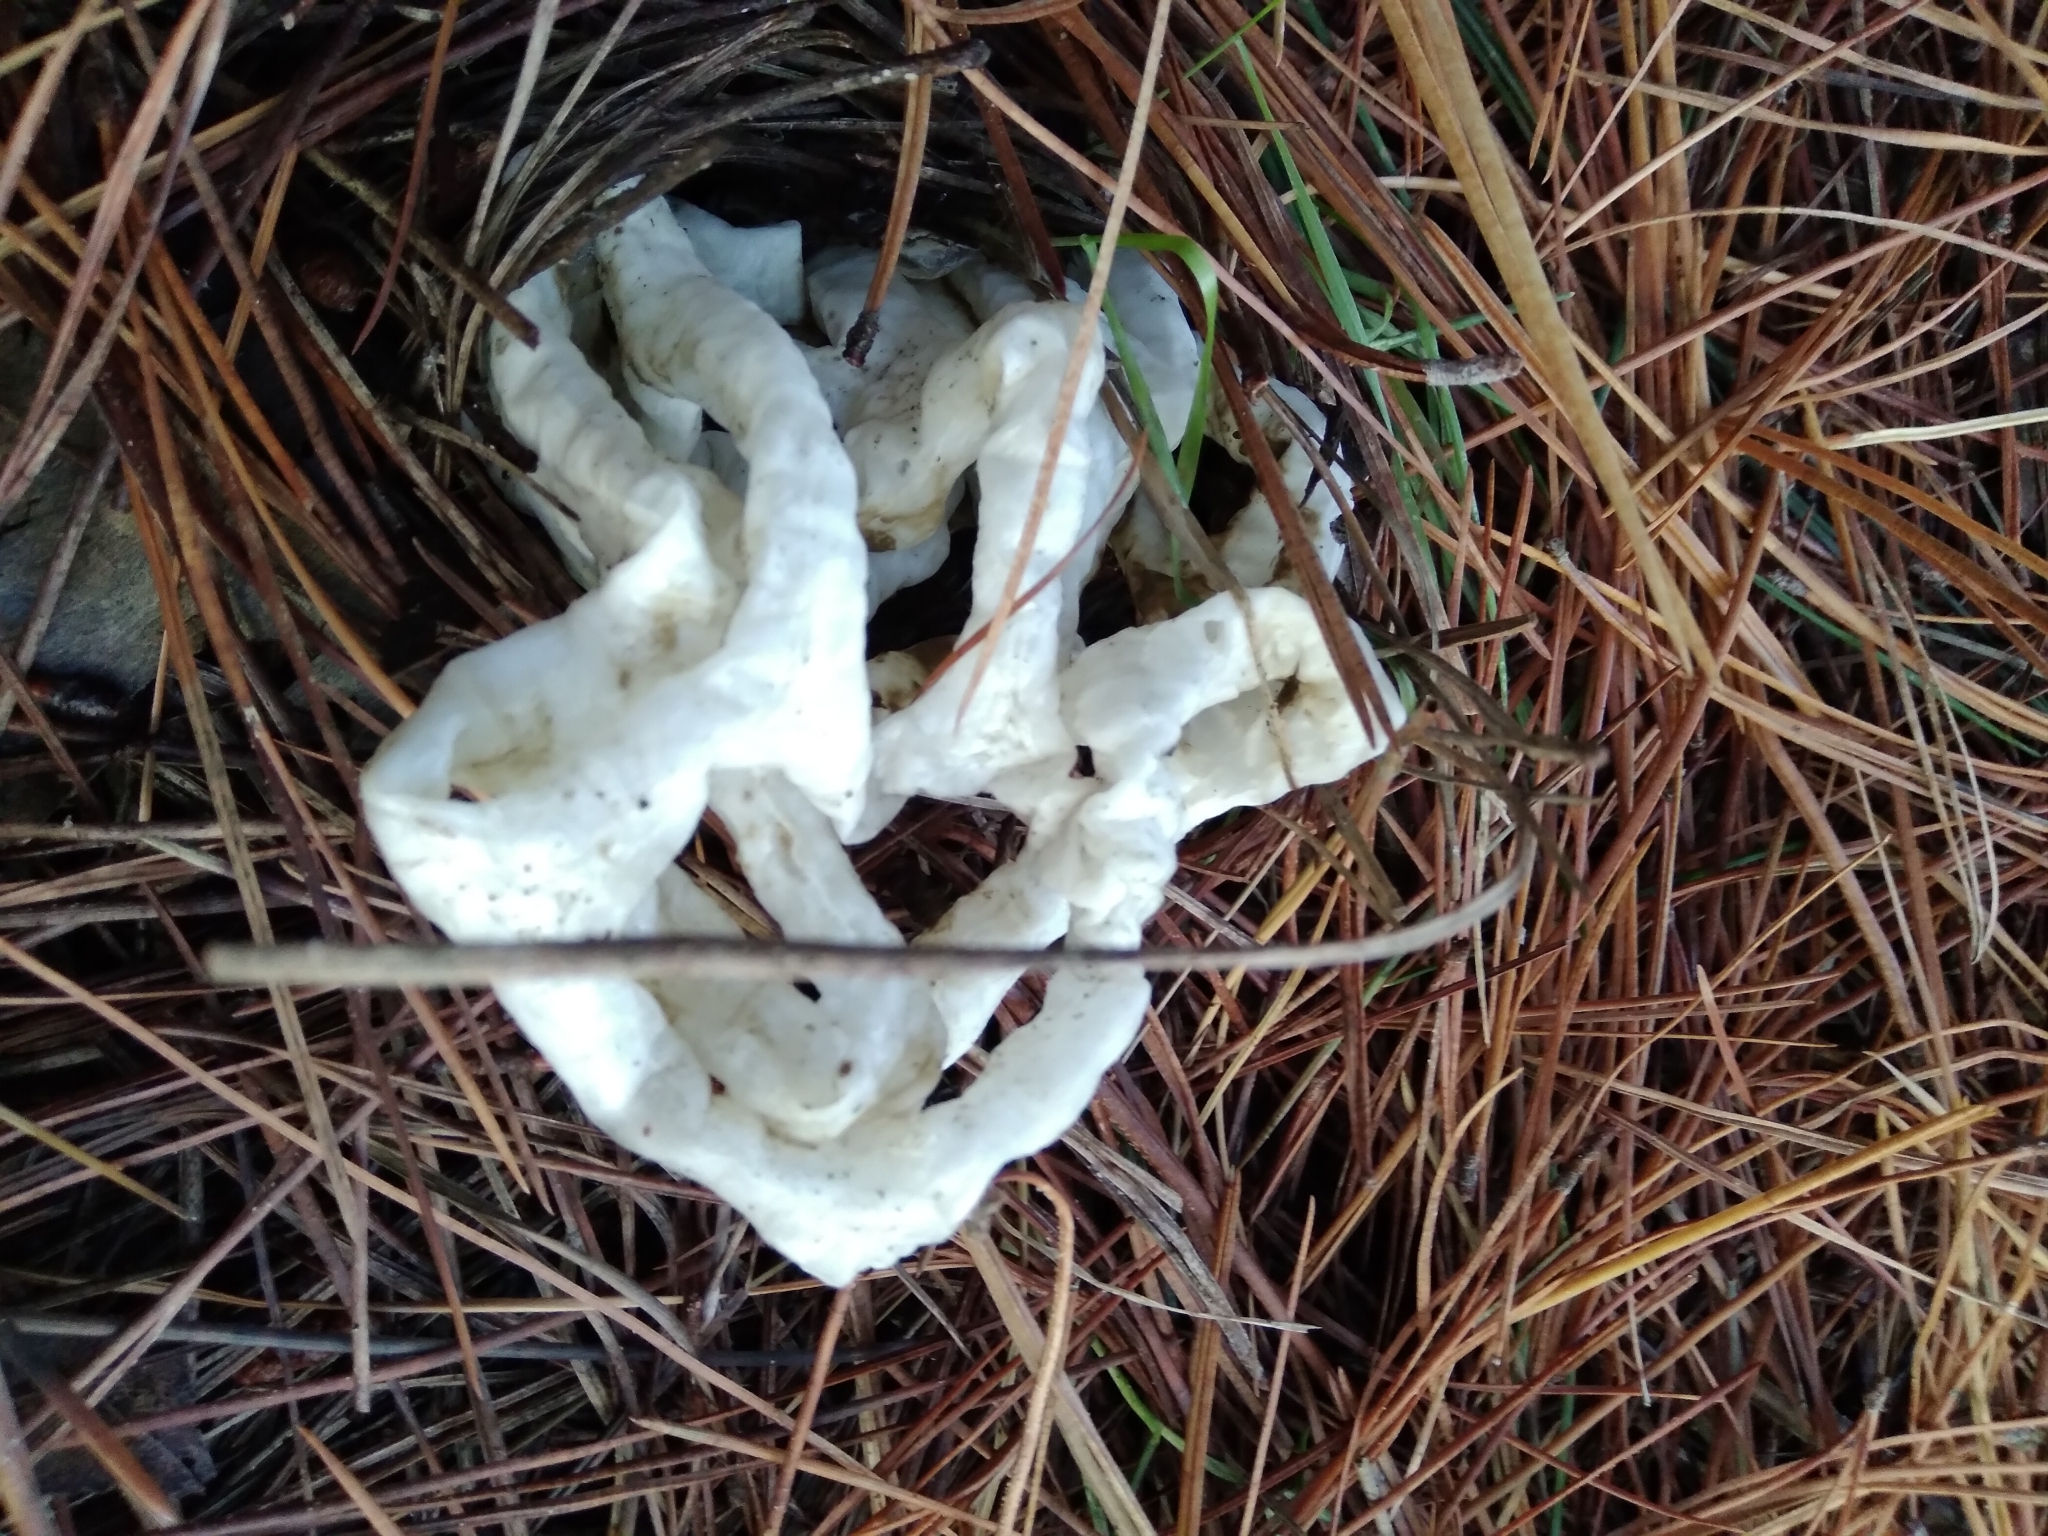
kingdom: Fungi
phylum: Basidiomycota
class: Agaricomycetes
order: Phallales
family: Phallaceae
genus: Ileodictyon
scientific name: Ileodictyon cibarium
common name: Basket fungus
